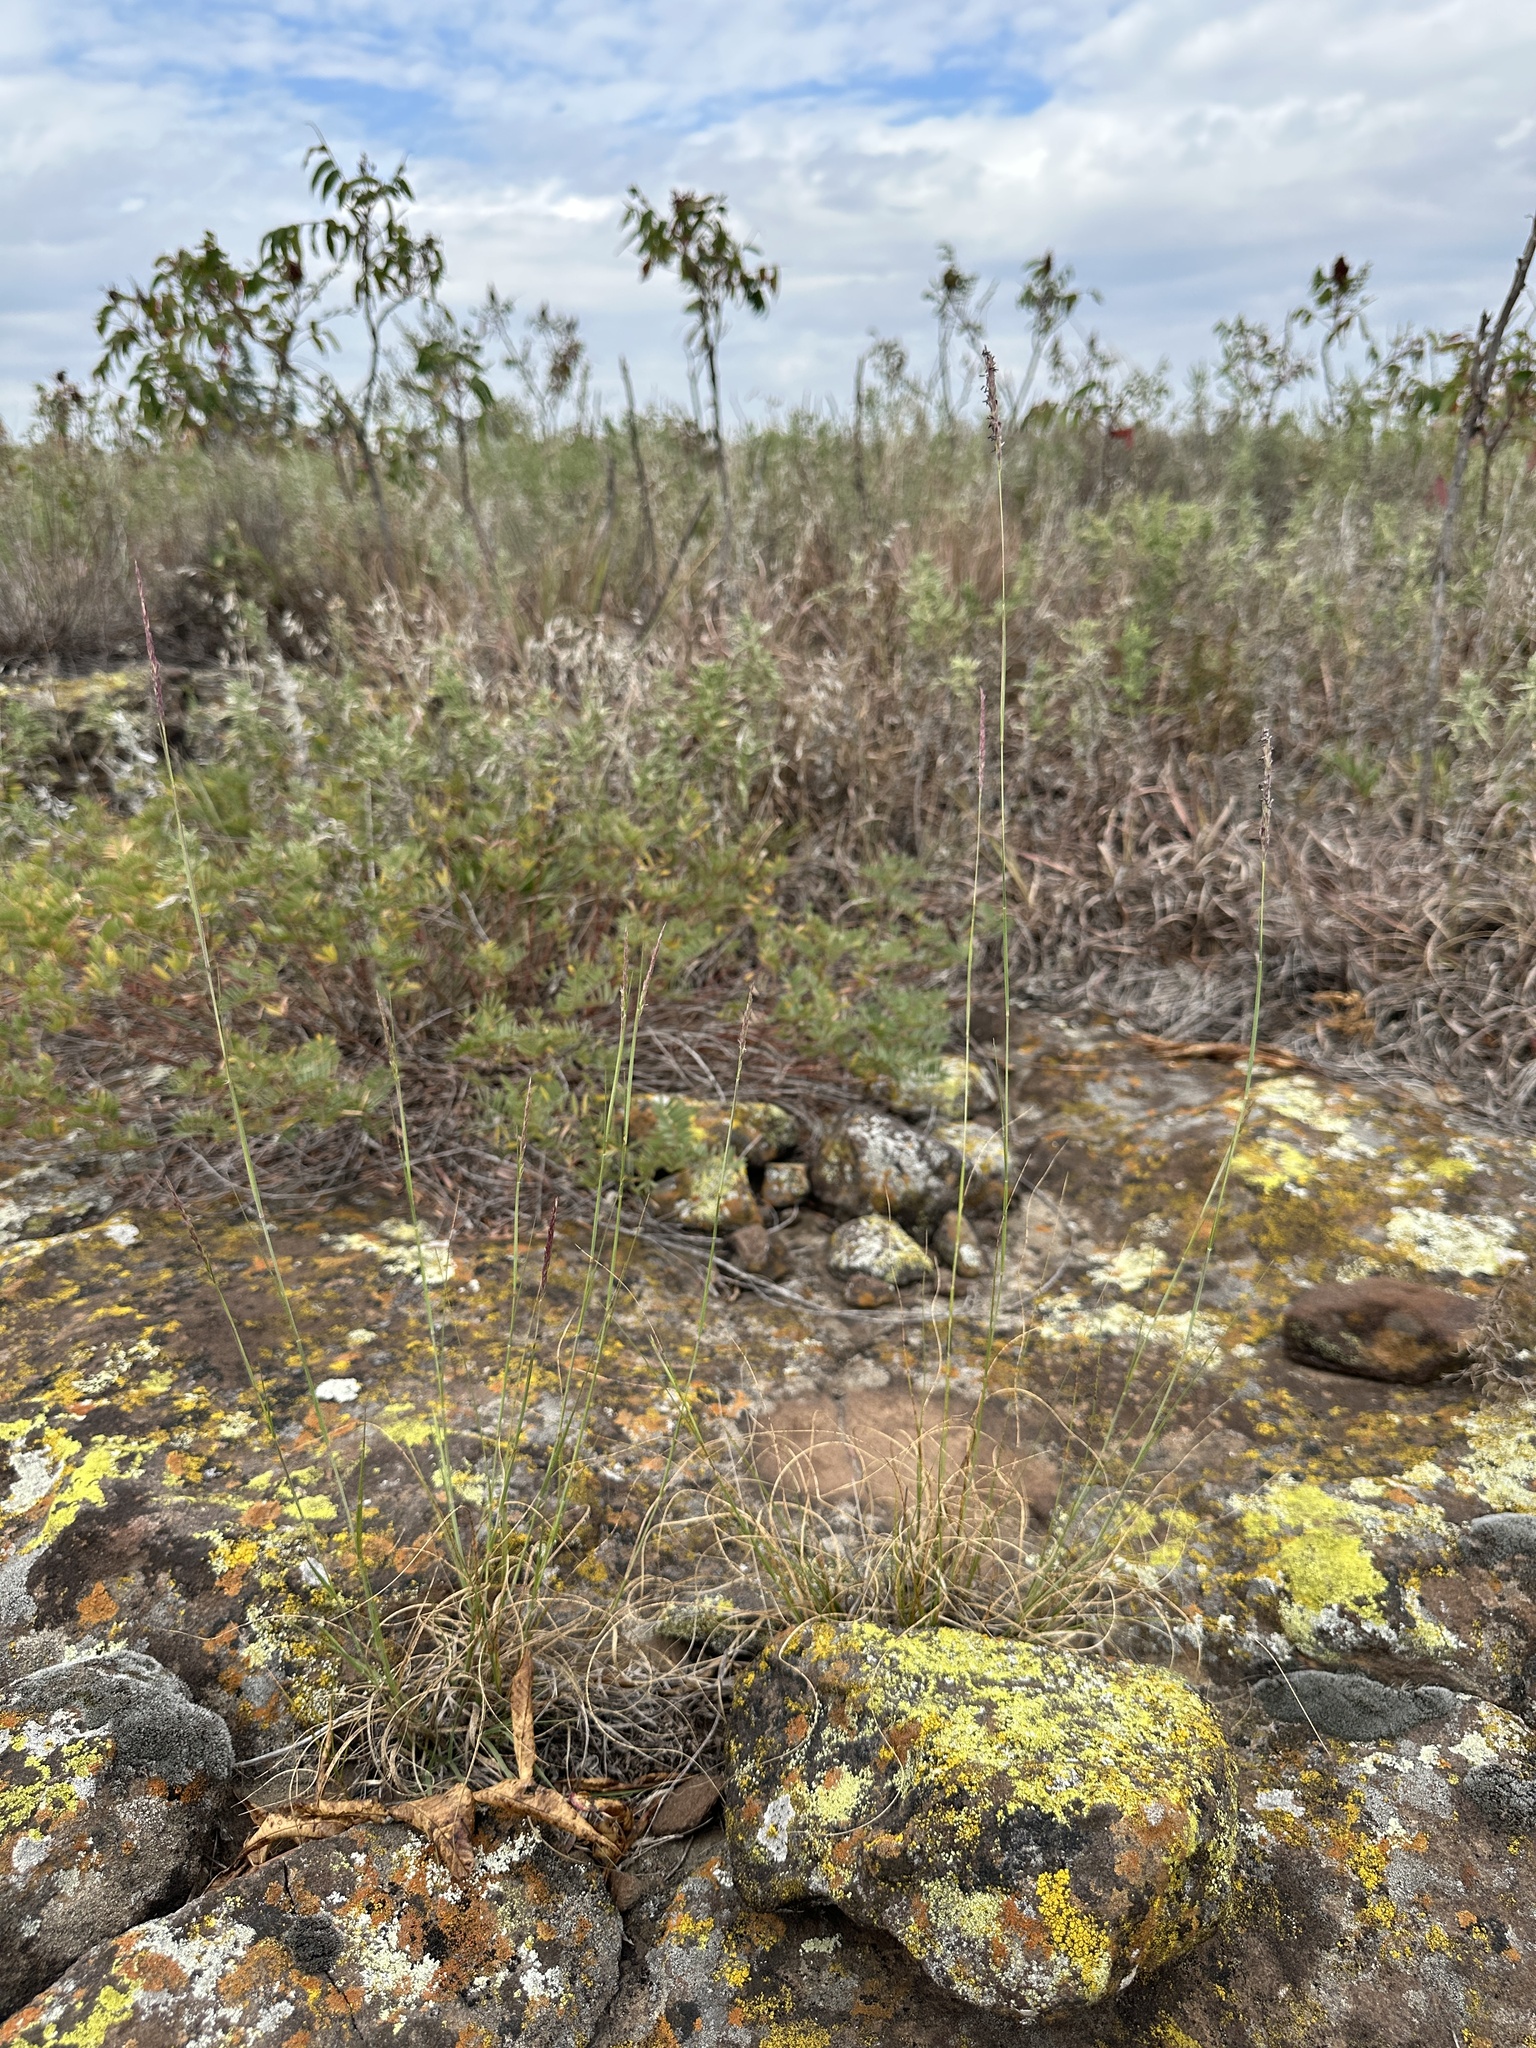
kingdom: Plantae
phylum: Tracheophyta
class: Liliopsida
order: Poales
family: Poaceae
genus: Sporobolus
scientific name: Sporobolus compositus
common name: Rough dropseed
